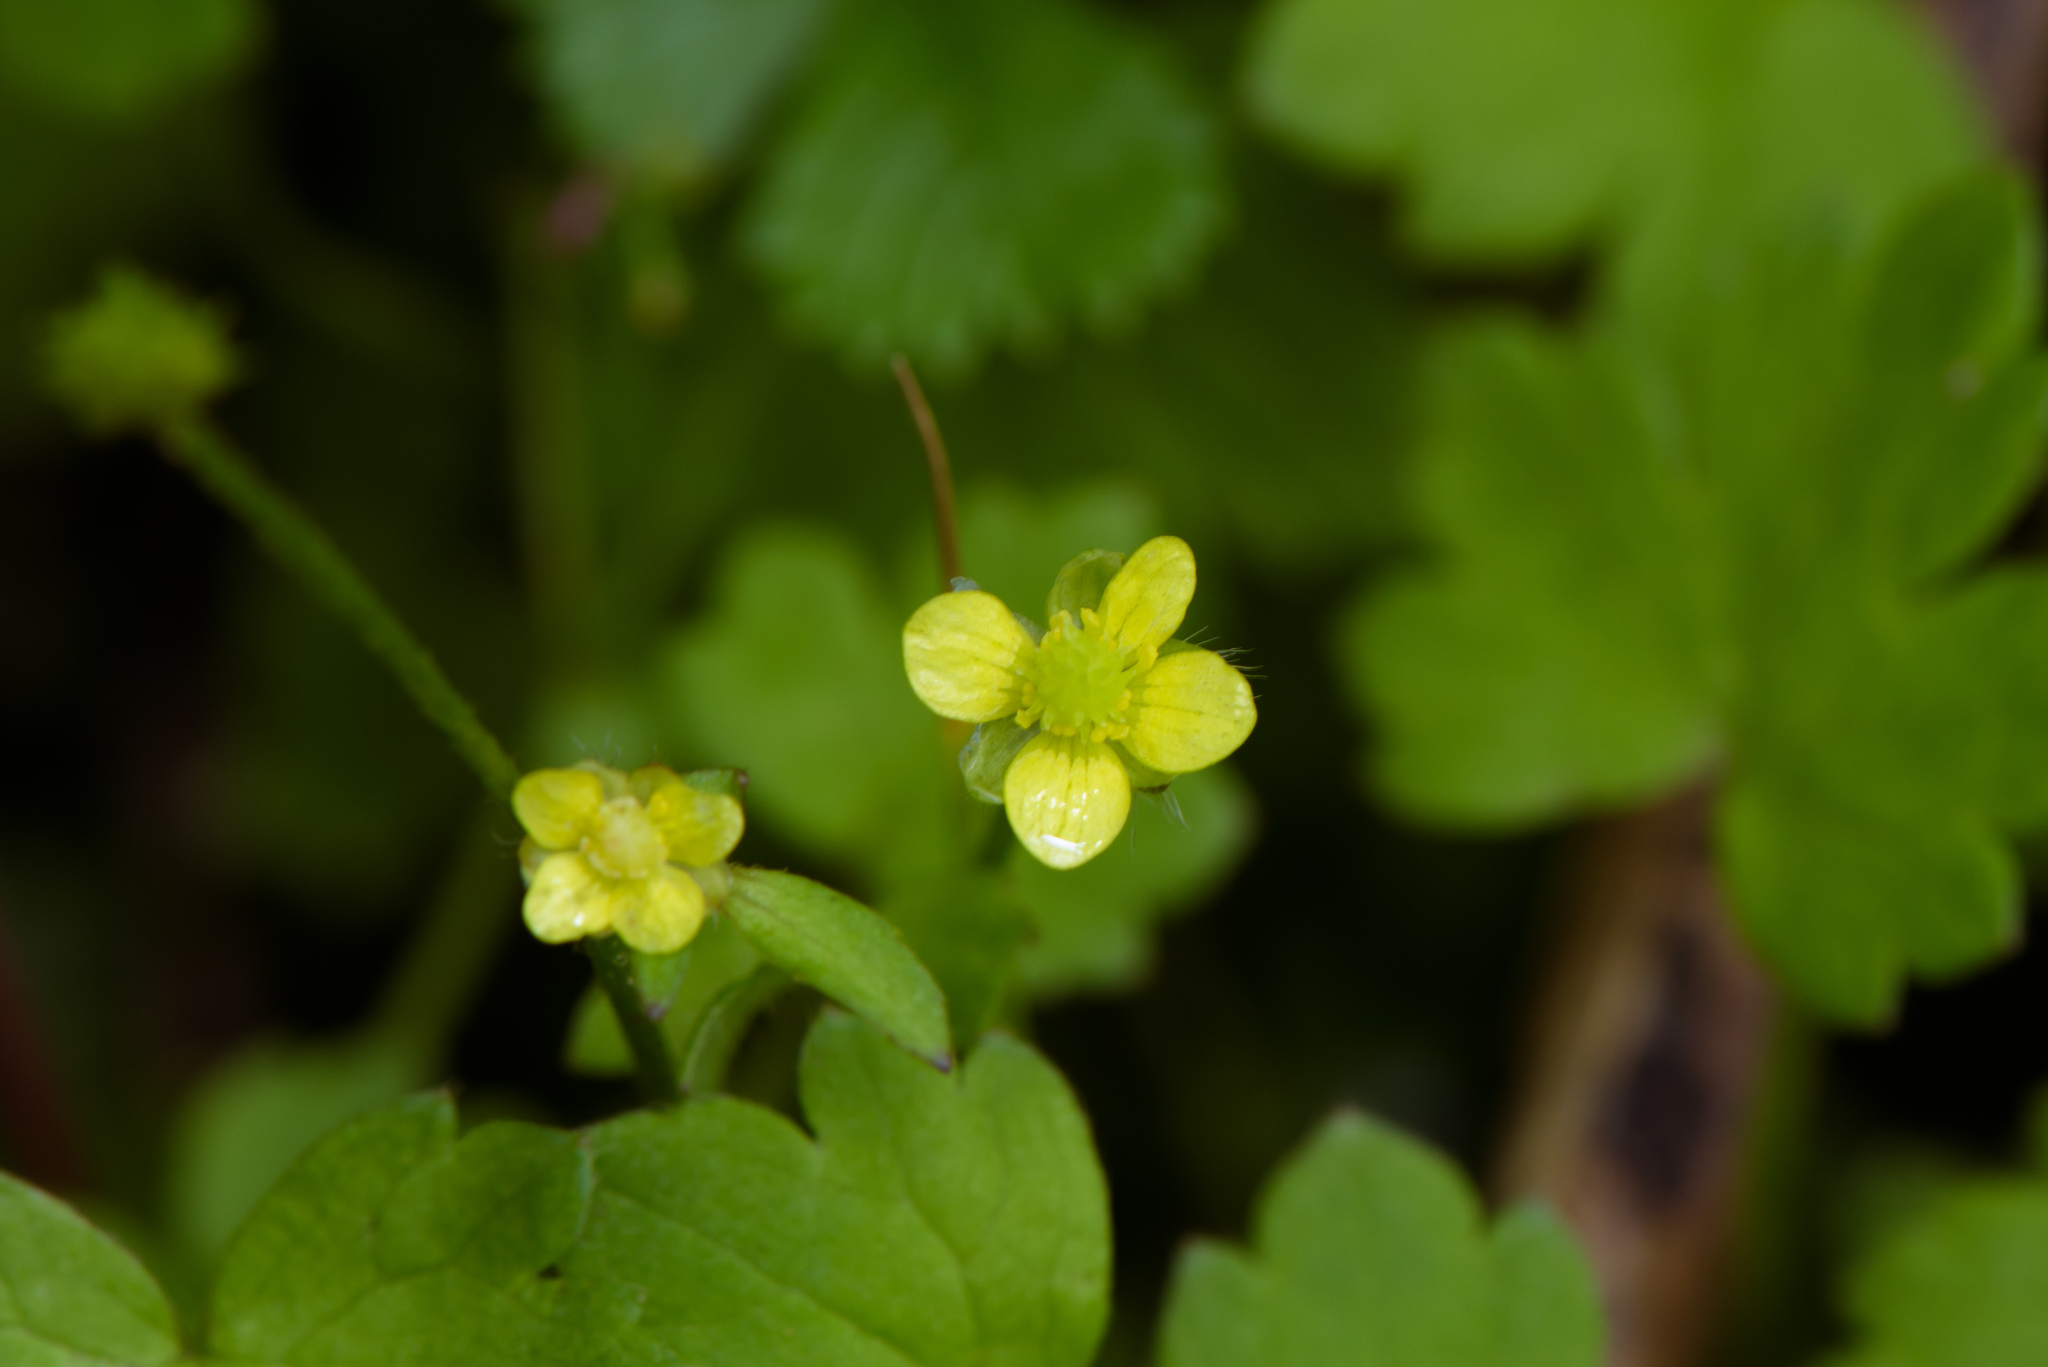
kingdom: Plantae
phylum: Tracheophyta
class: Magnoliopsida
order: Ranunculales
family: Ranunculaceae
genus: Ranunculus
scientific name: Ranunculus taisanensis
